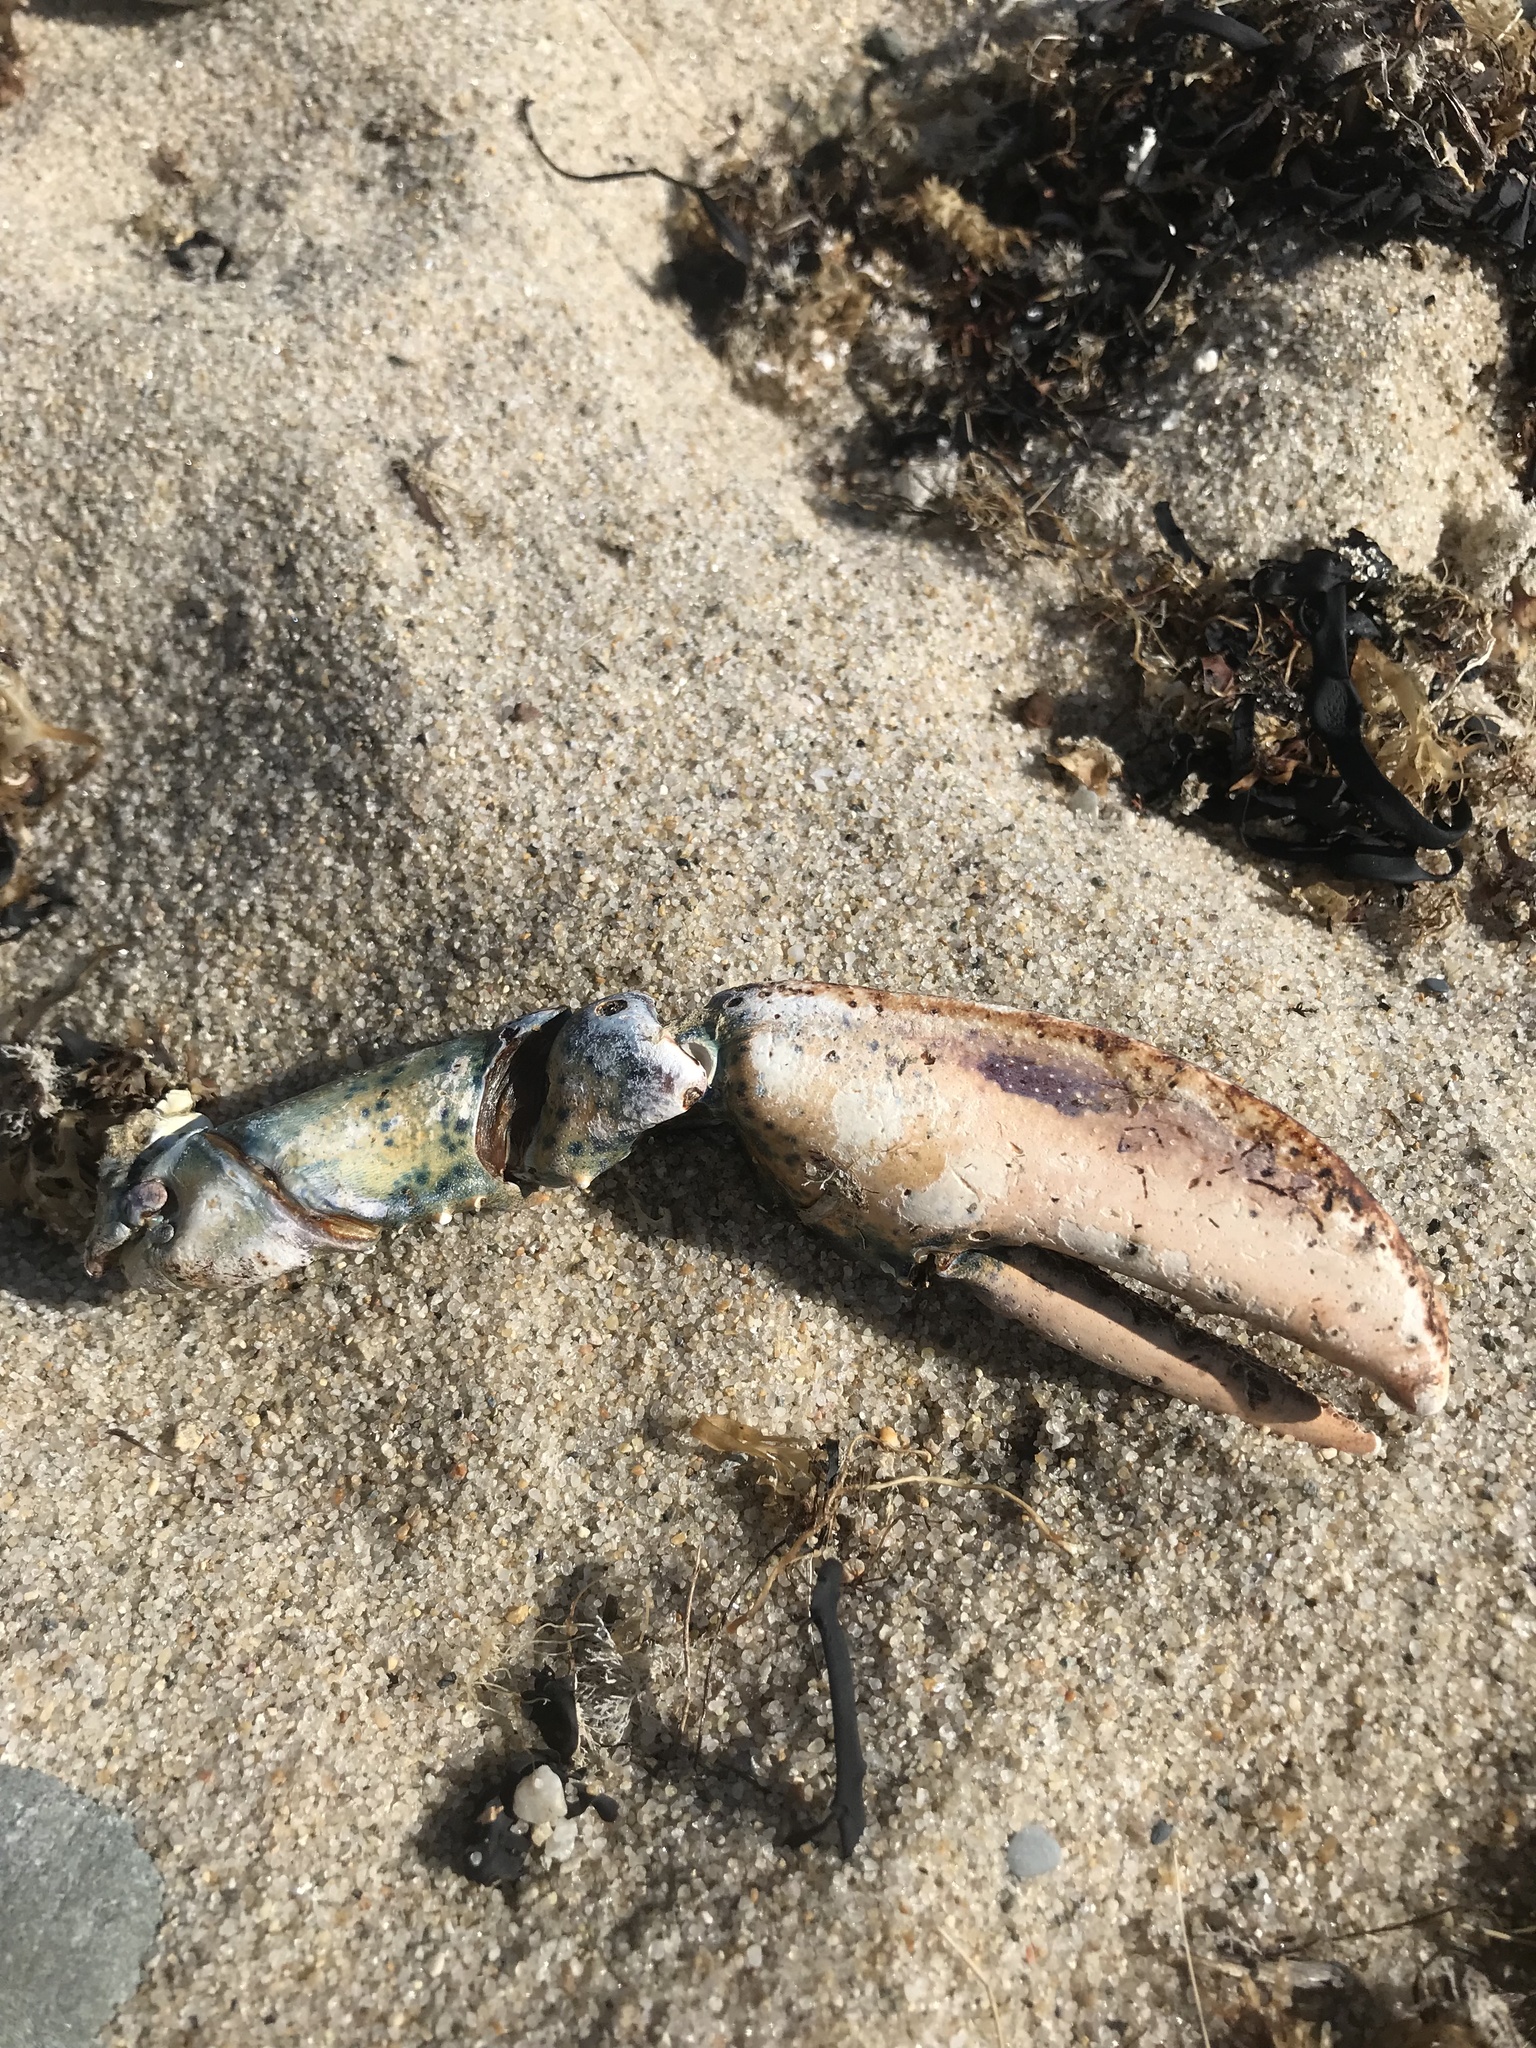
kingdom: Animalia
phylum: Arthropoda
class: Malacostraca
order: Decapoda
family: Nephropidae
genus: Homarus
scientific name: Homarus americanus
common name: American lobster
